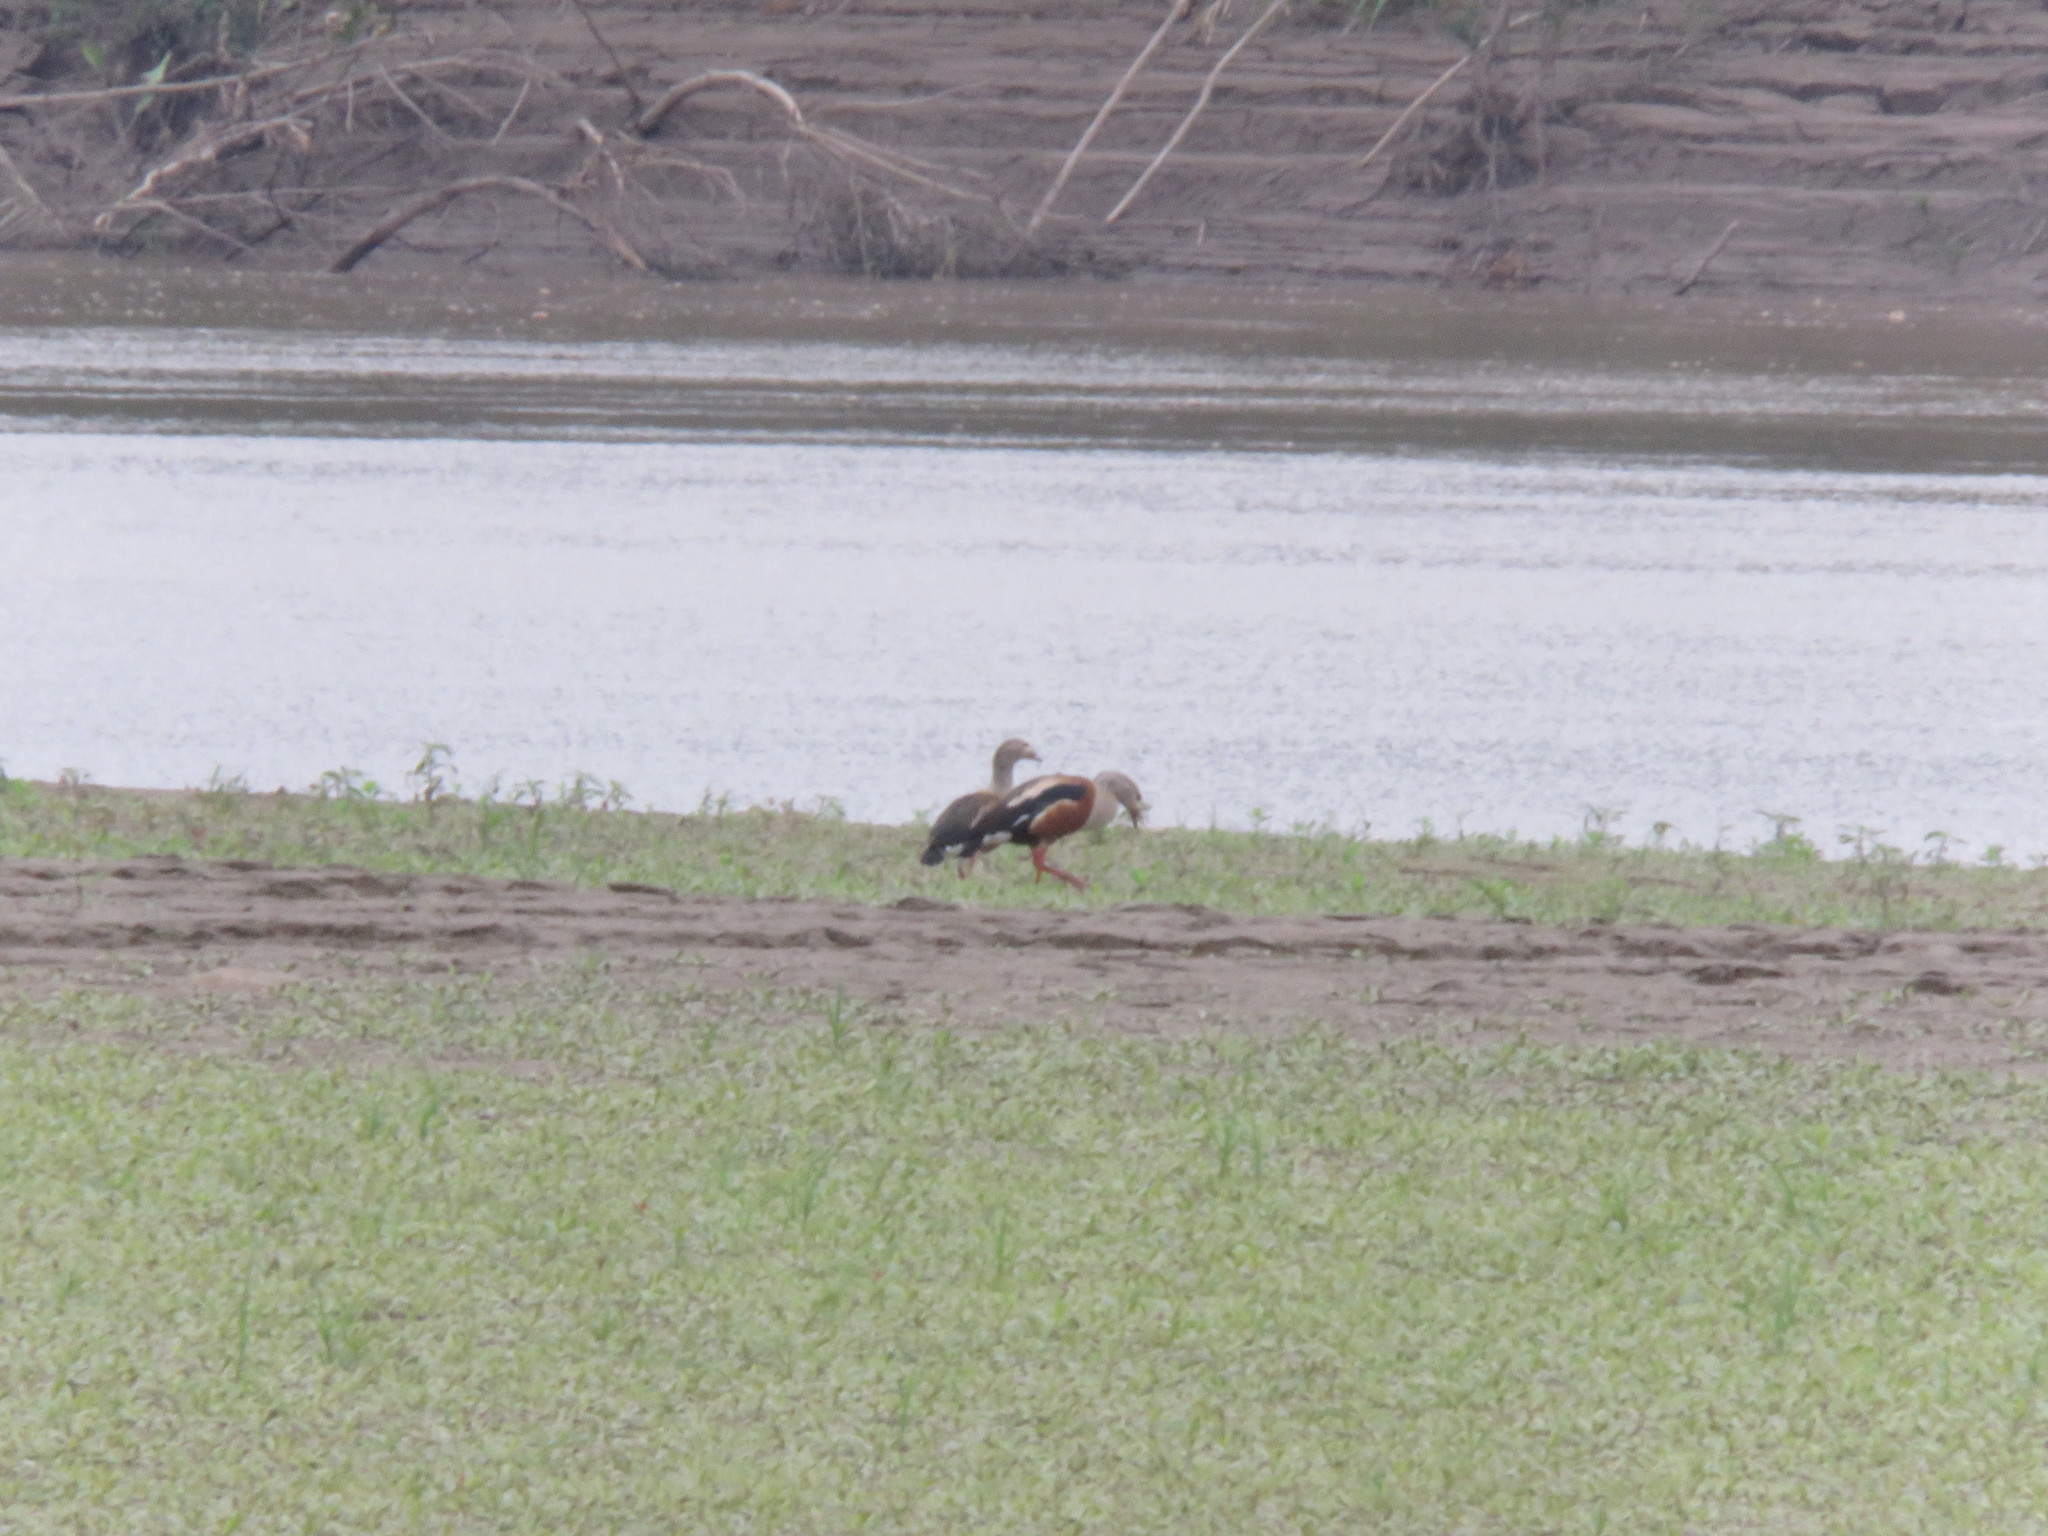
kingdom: Animalia
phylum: Chordata
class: Aves
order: Anseriformes
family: Anatidae
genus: Oressochen
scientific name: Oressochen jubatus
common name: Orinoco goose
